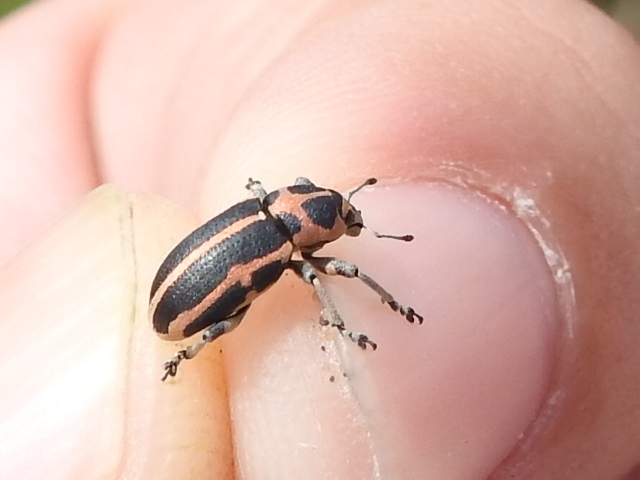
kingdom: Animalia
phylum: Arthropoda
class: Insecta
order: Coleoptera
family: Curculionidae
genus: Eudiagogus
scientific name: Eudiagogus pulcher
